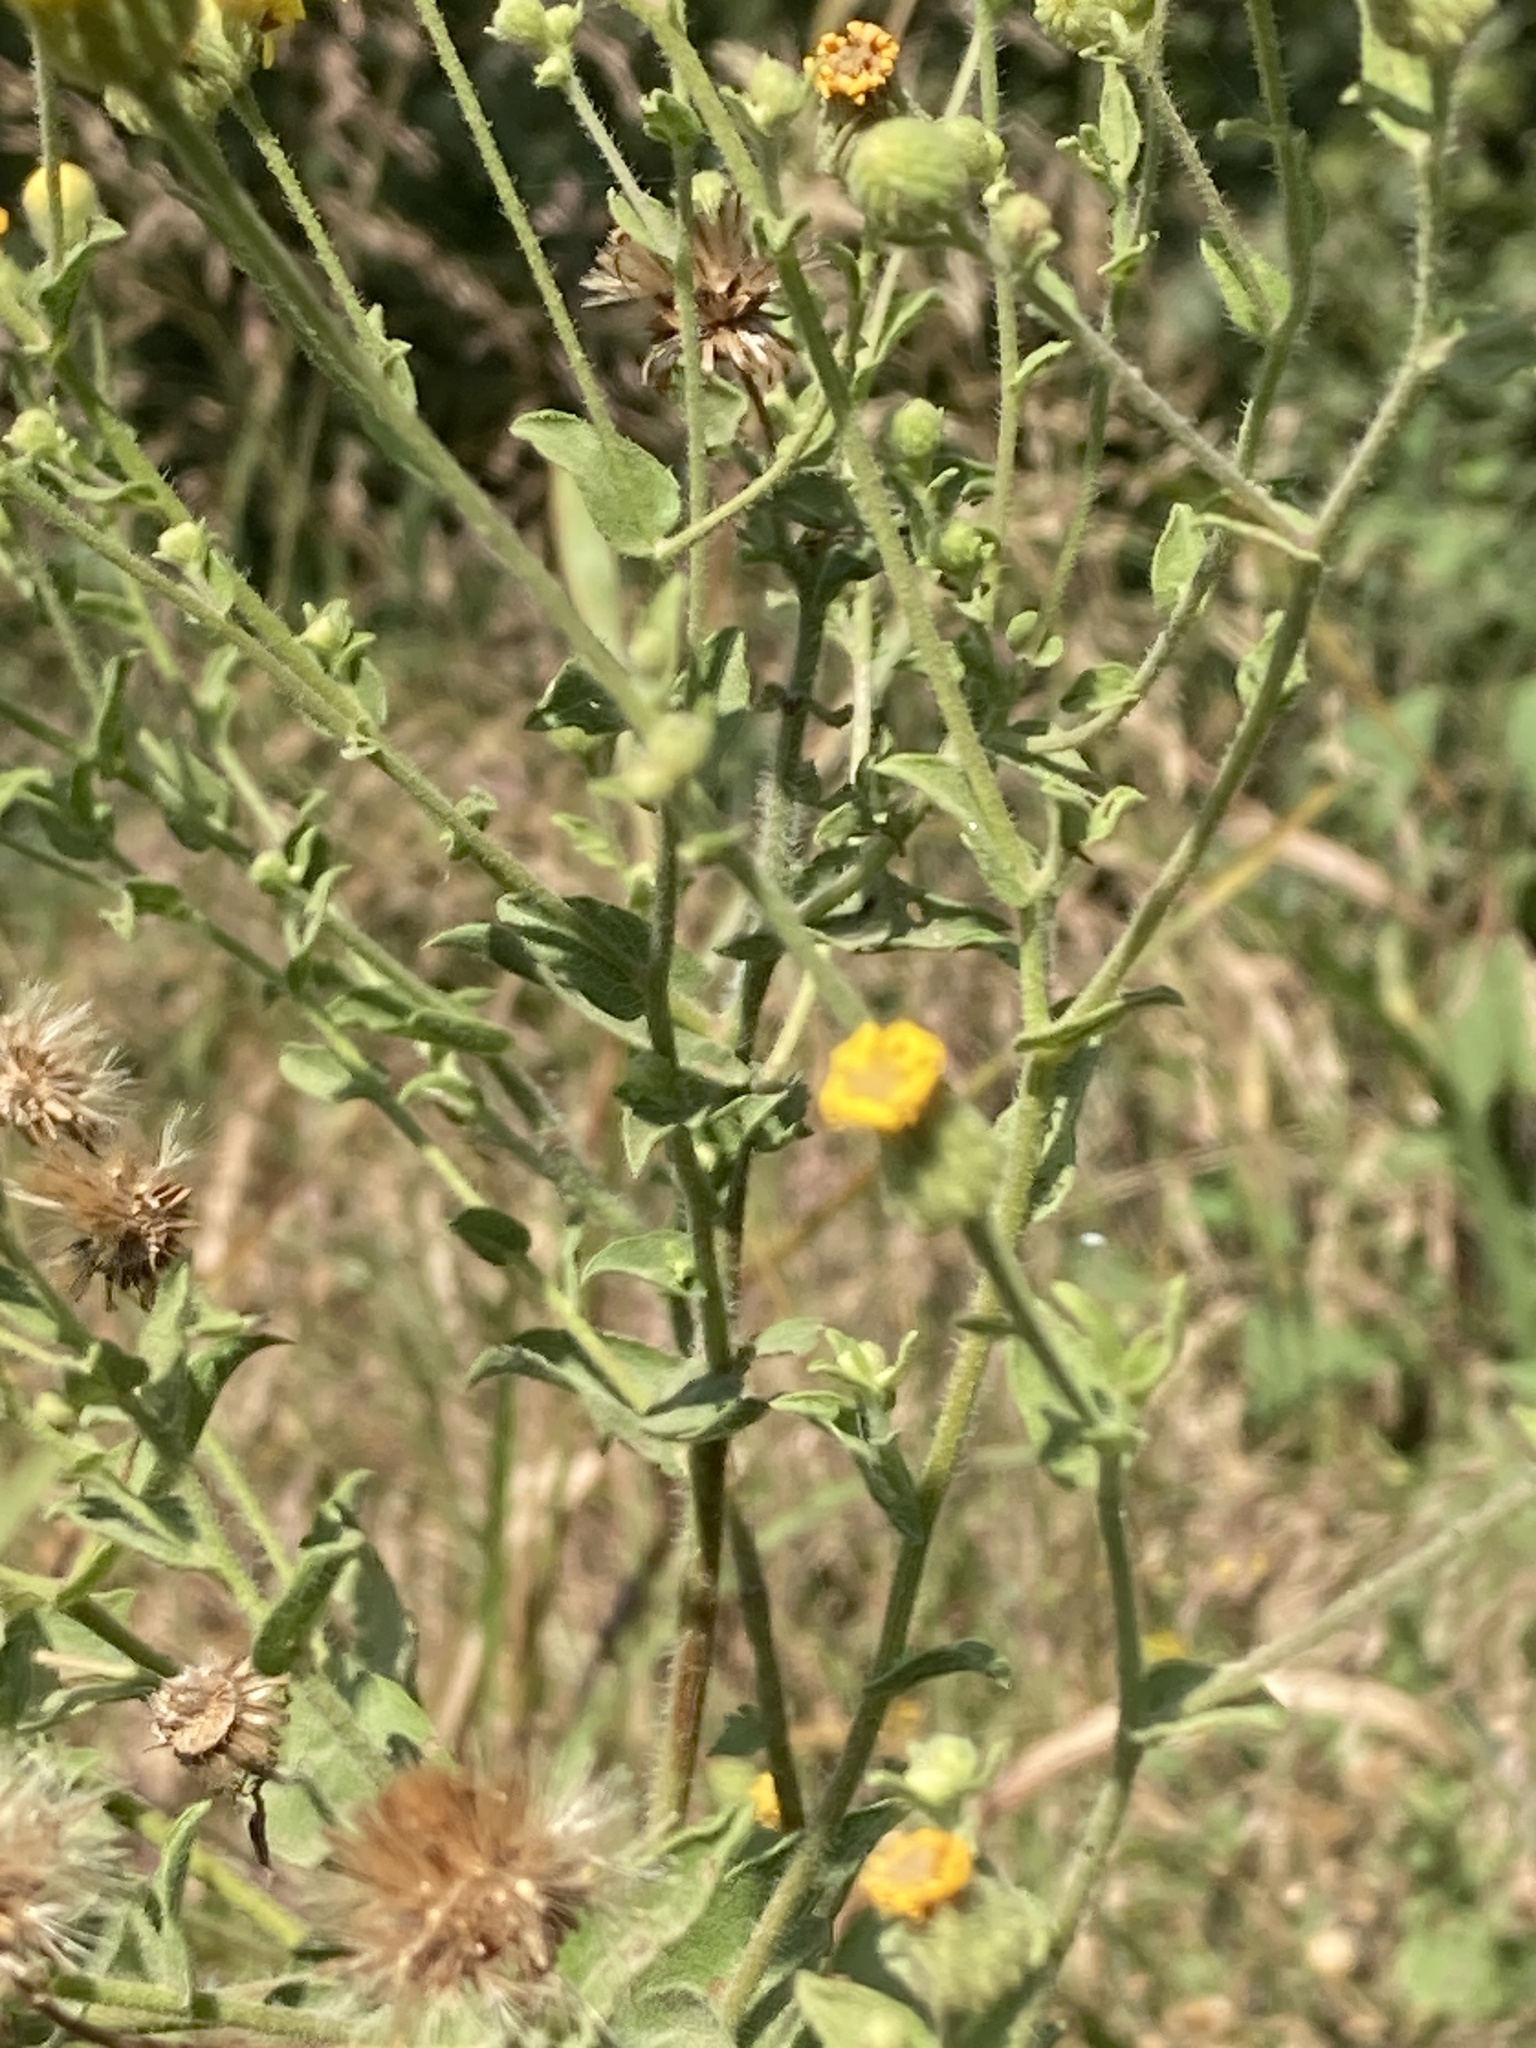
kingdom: Plantae
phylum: Tracheophyta
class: Magnoliopsida
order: Asterales
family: Asteraceae
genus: Heterotheca
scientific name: Heterotheca subaxillaris
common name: Camphorweed
